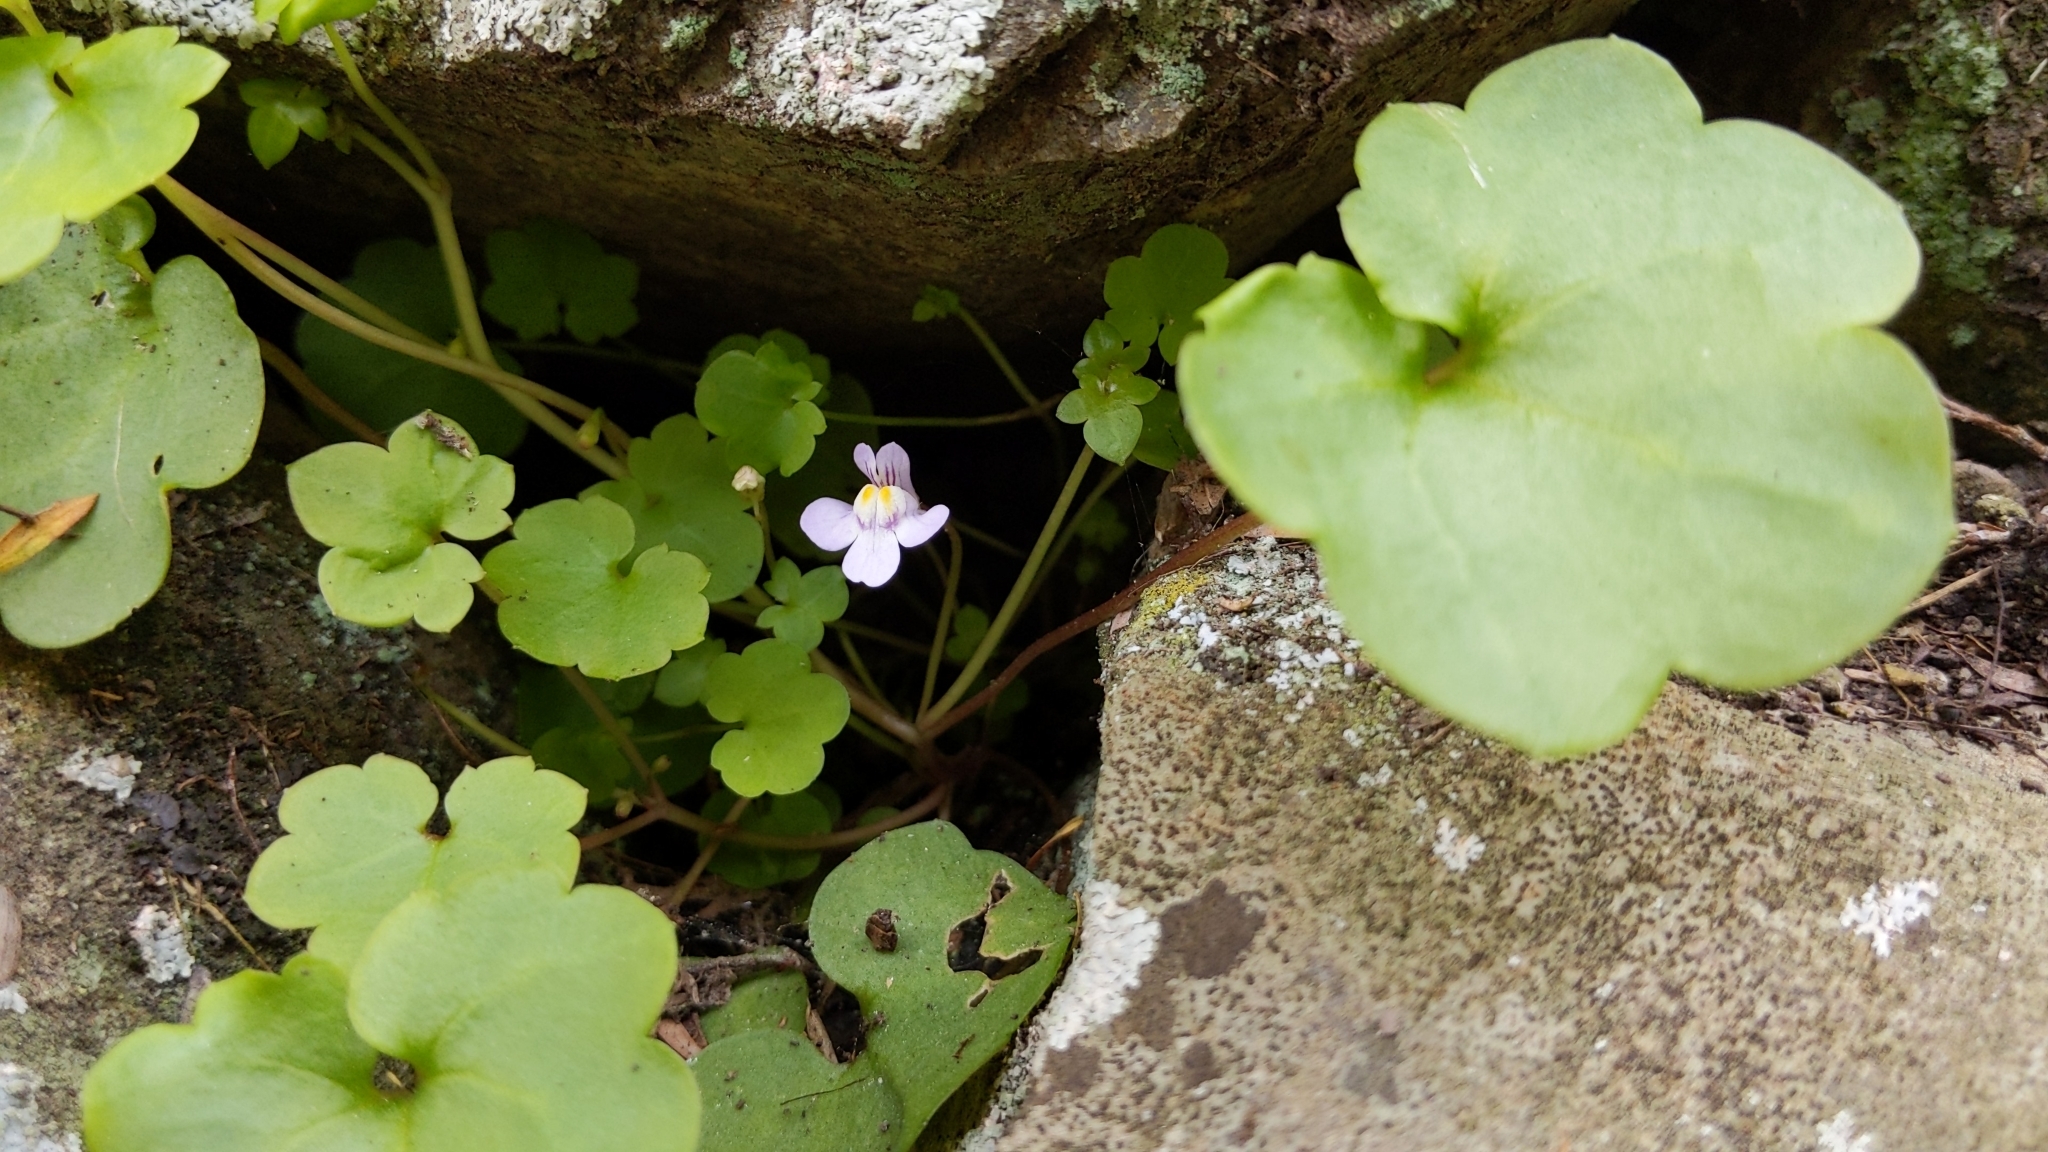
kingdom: Plantae
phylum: Tracheophyta
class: Magnoliopsida
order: Lamiales
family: Plantaginaceae
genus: Cymbalaria
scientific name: Cymbalaria muralis
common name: Ivy-leaved toadflax
